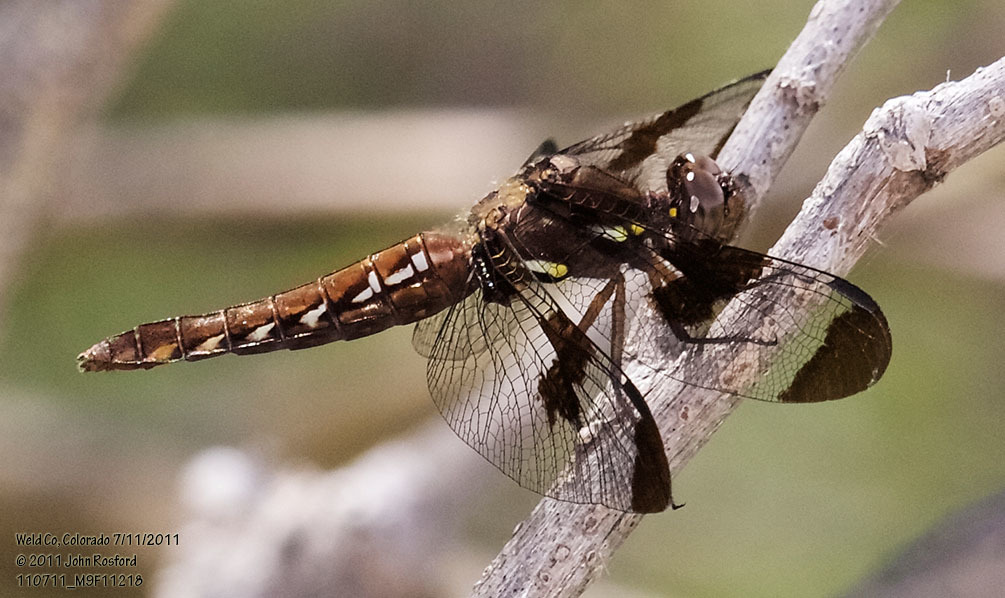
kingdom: Animalia
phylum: Arthropoda
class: Insecta
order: Odonata
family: Libellulidae
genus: Plathemis
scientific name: Plathemis lydia
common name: Common whitetail
